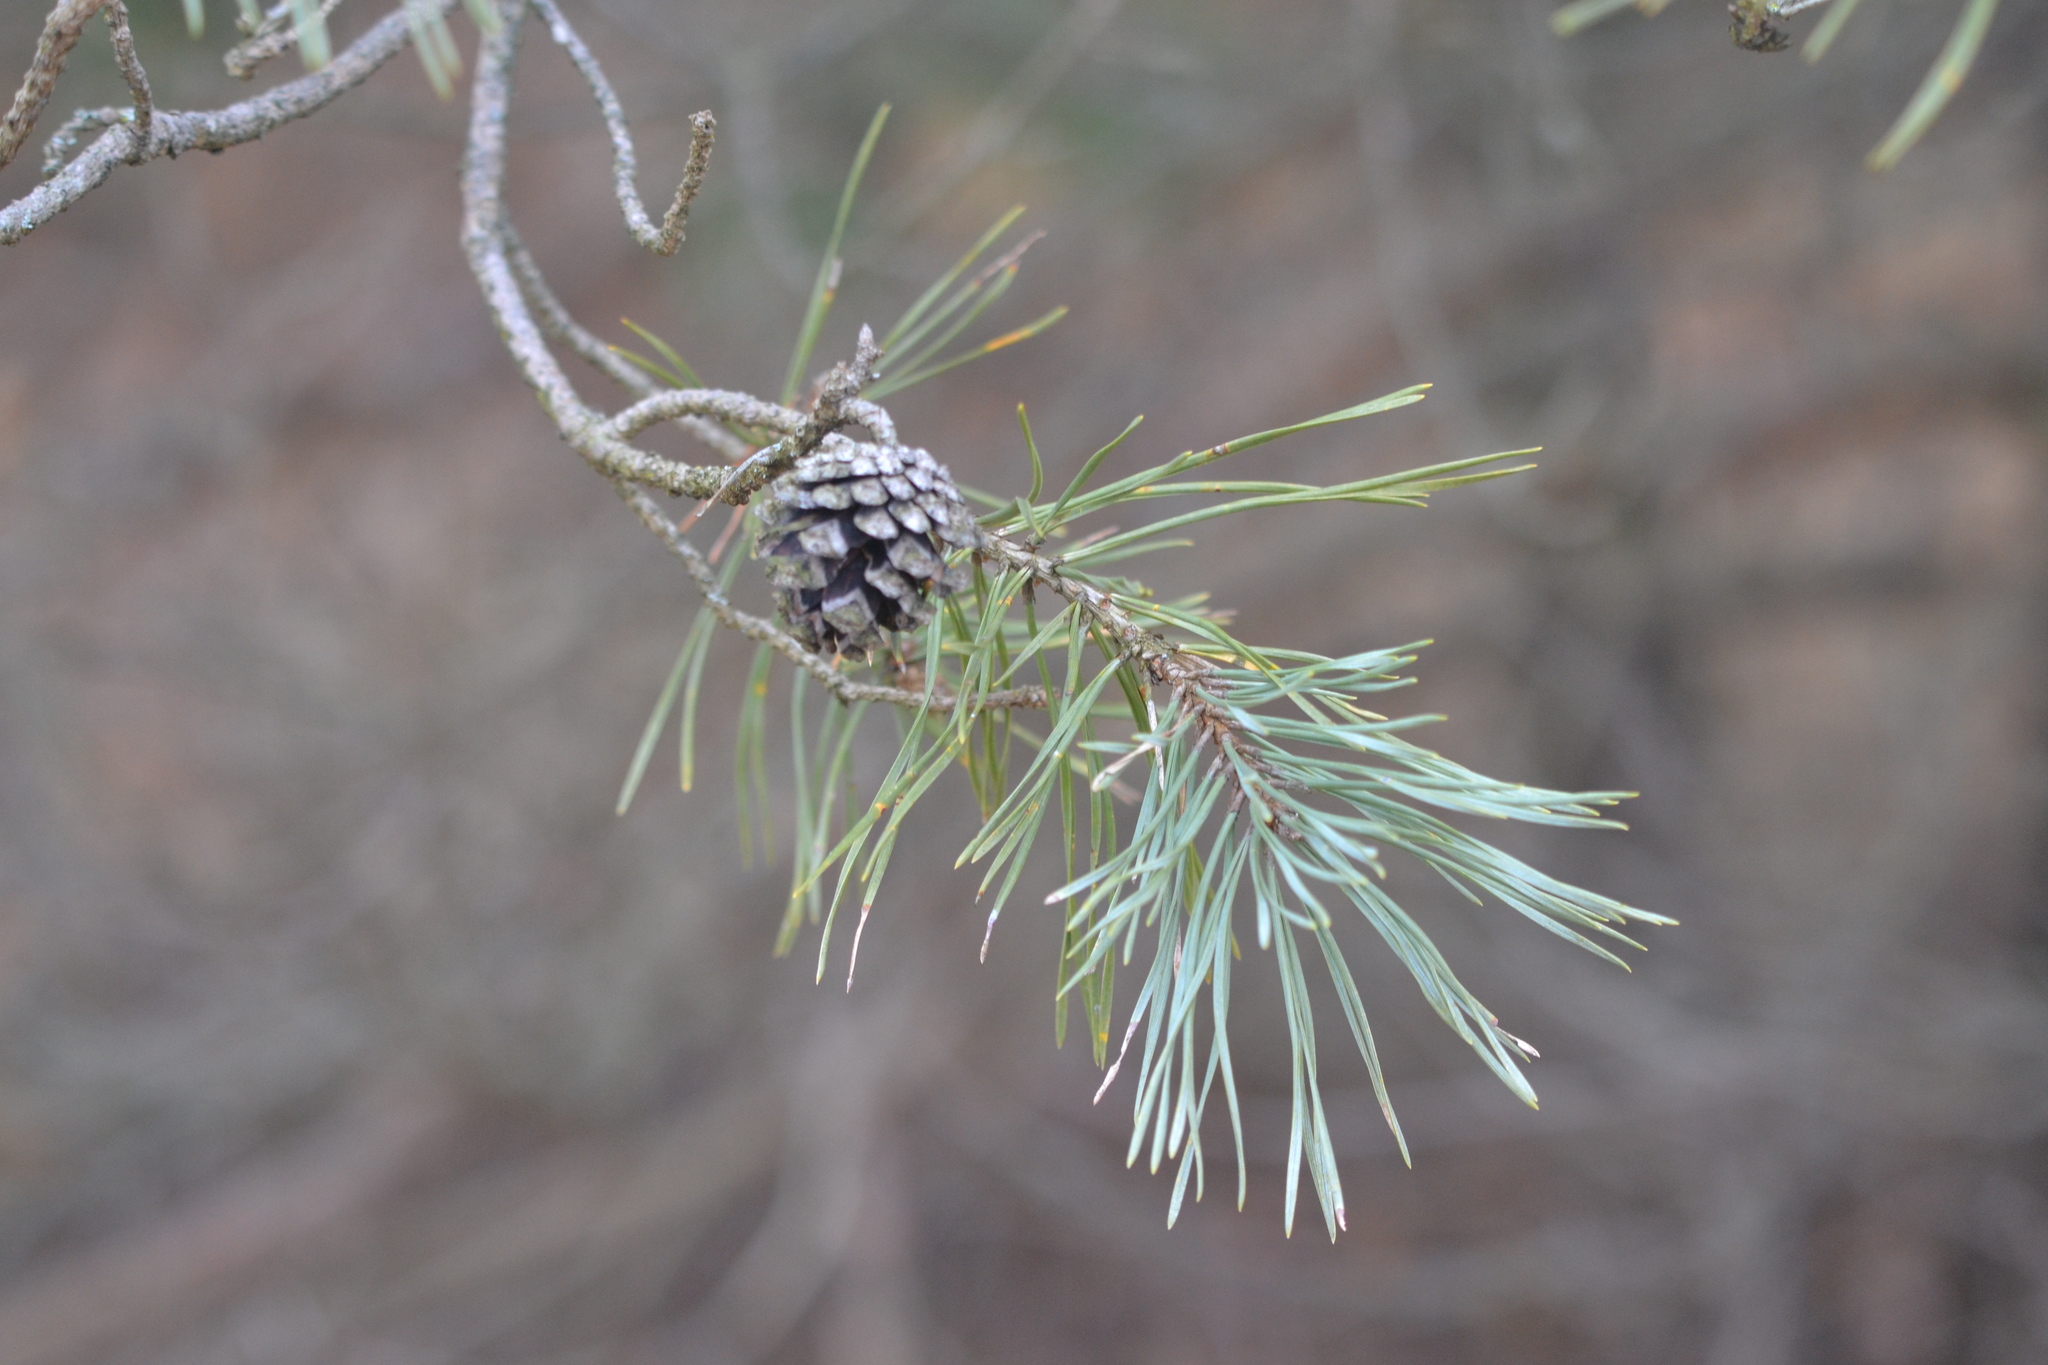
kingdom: Plantae
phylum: Tracheophyta
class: Pinopsida
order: Pinales
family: Pinaceae
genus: Pinus
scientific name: Pinus sylvestris
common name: Scots pine
